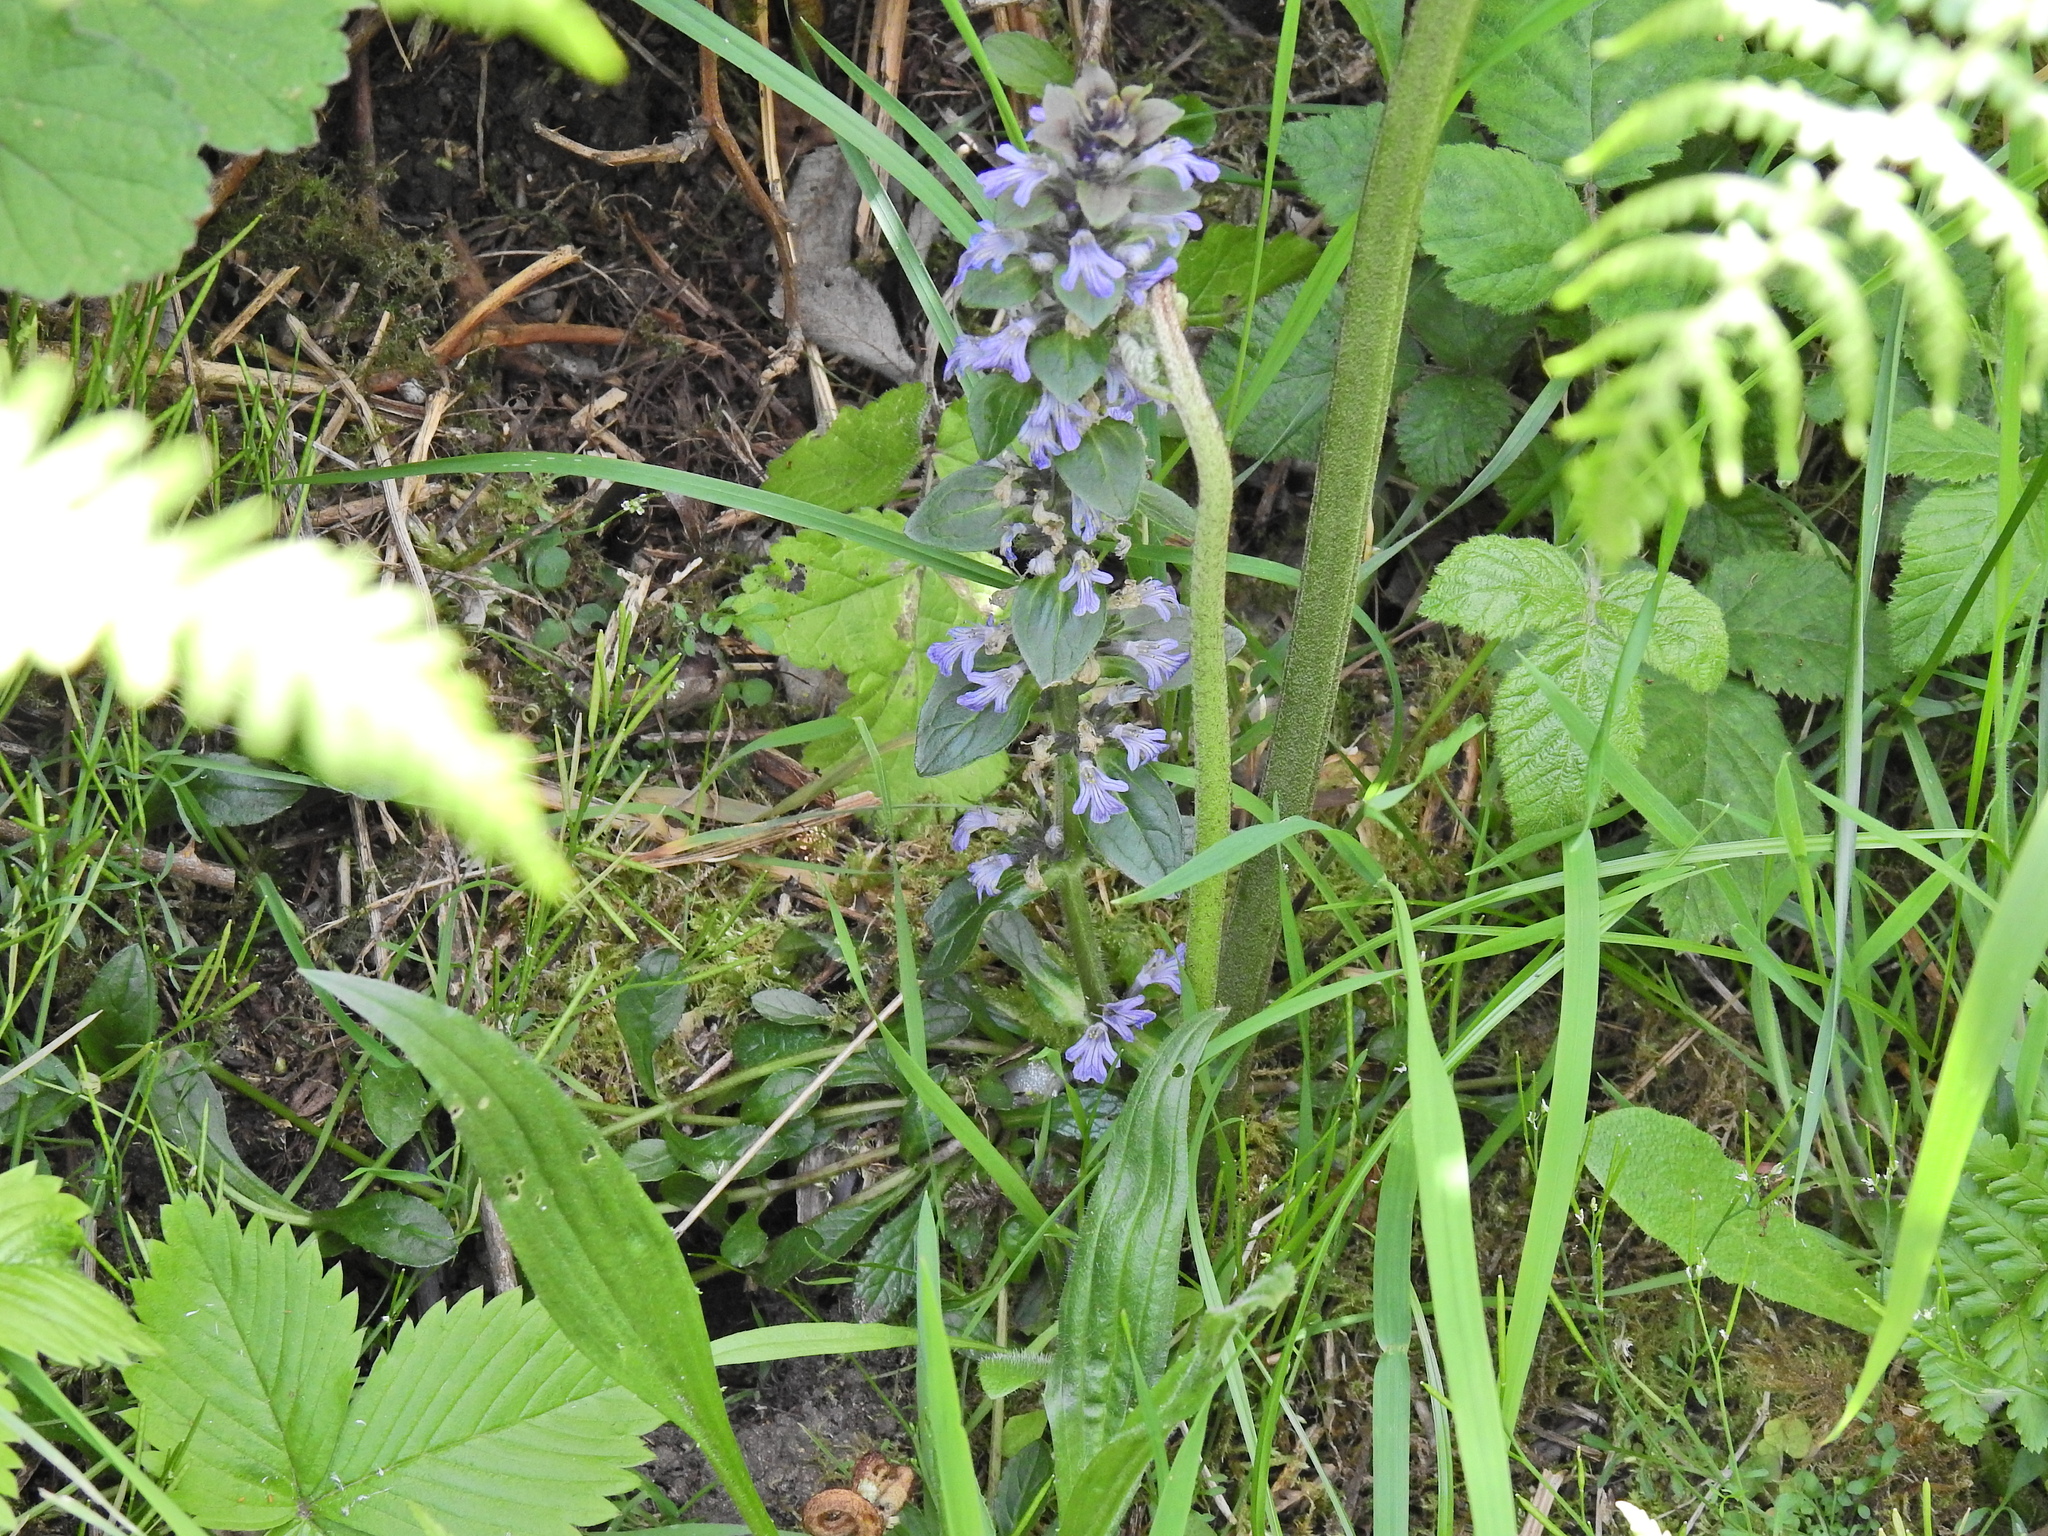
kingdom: Plantae
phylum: Tracheophyta
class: Magnoliopsida
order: Lamiales
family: Lamiaceae
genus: Ajuga
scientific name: Ajuga reptans
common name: Bugle
